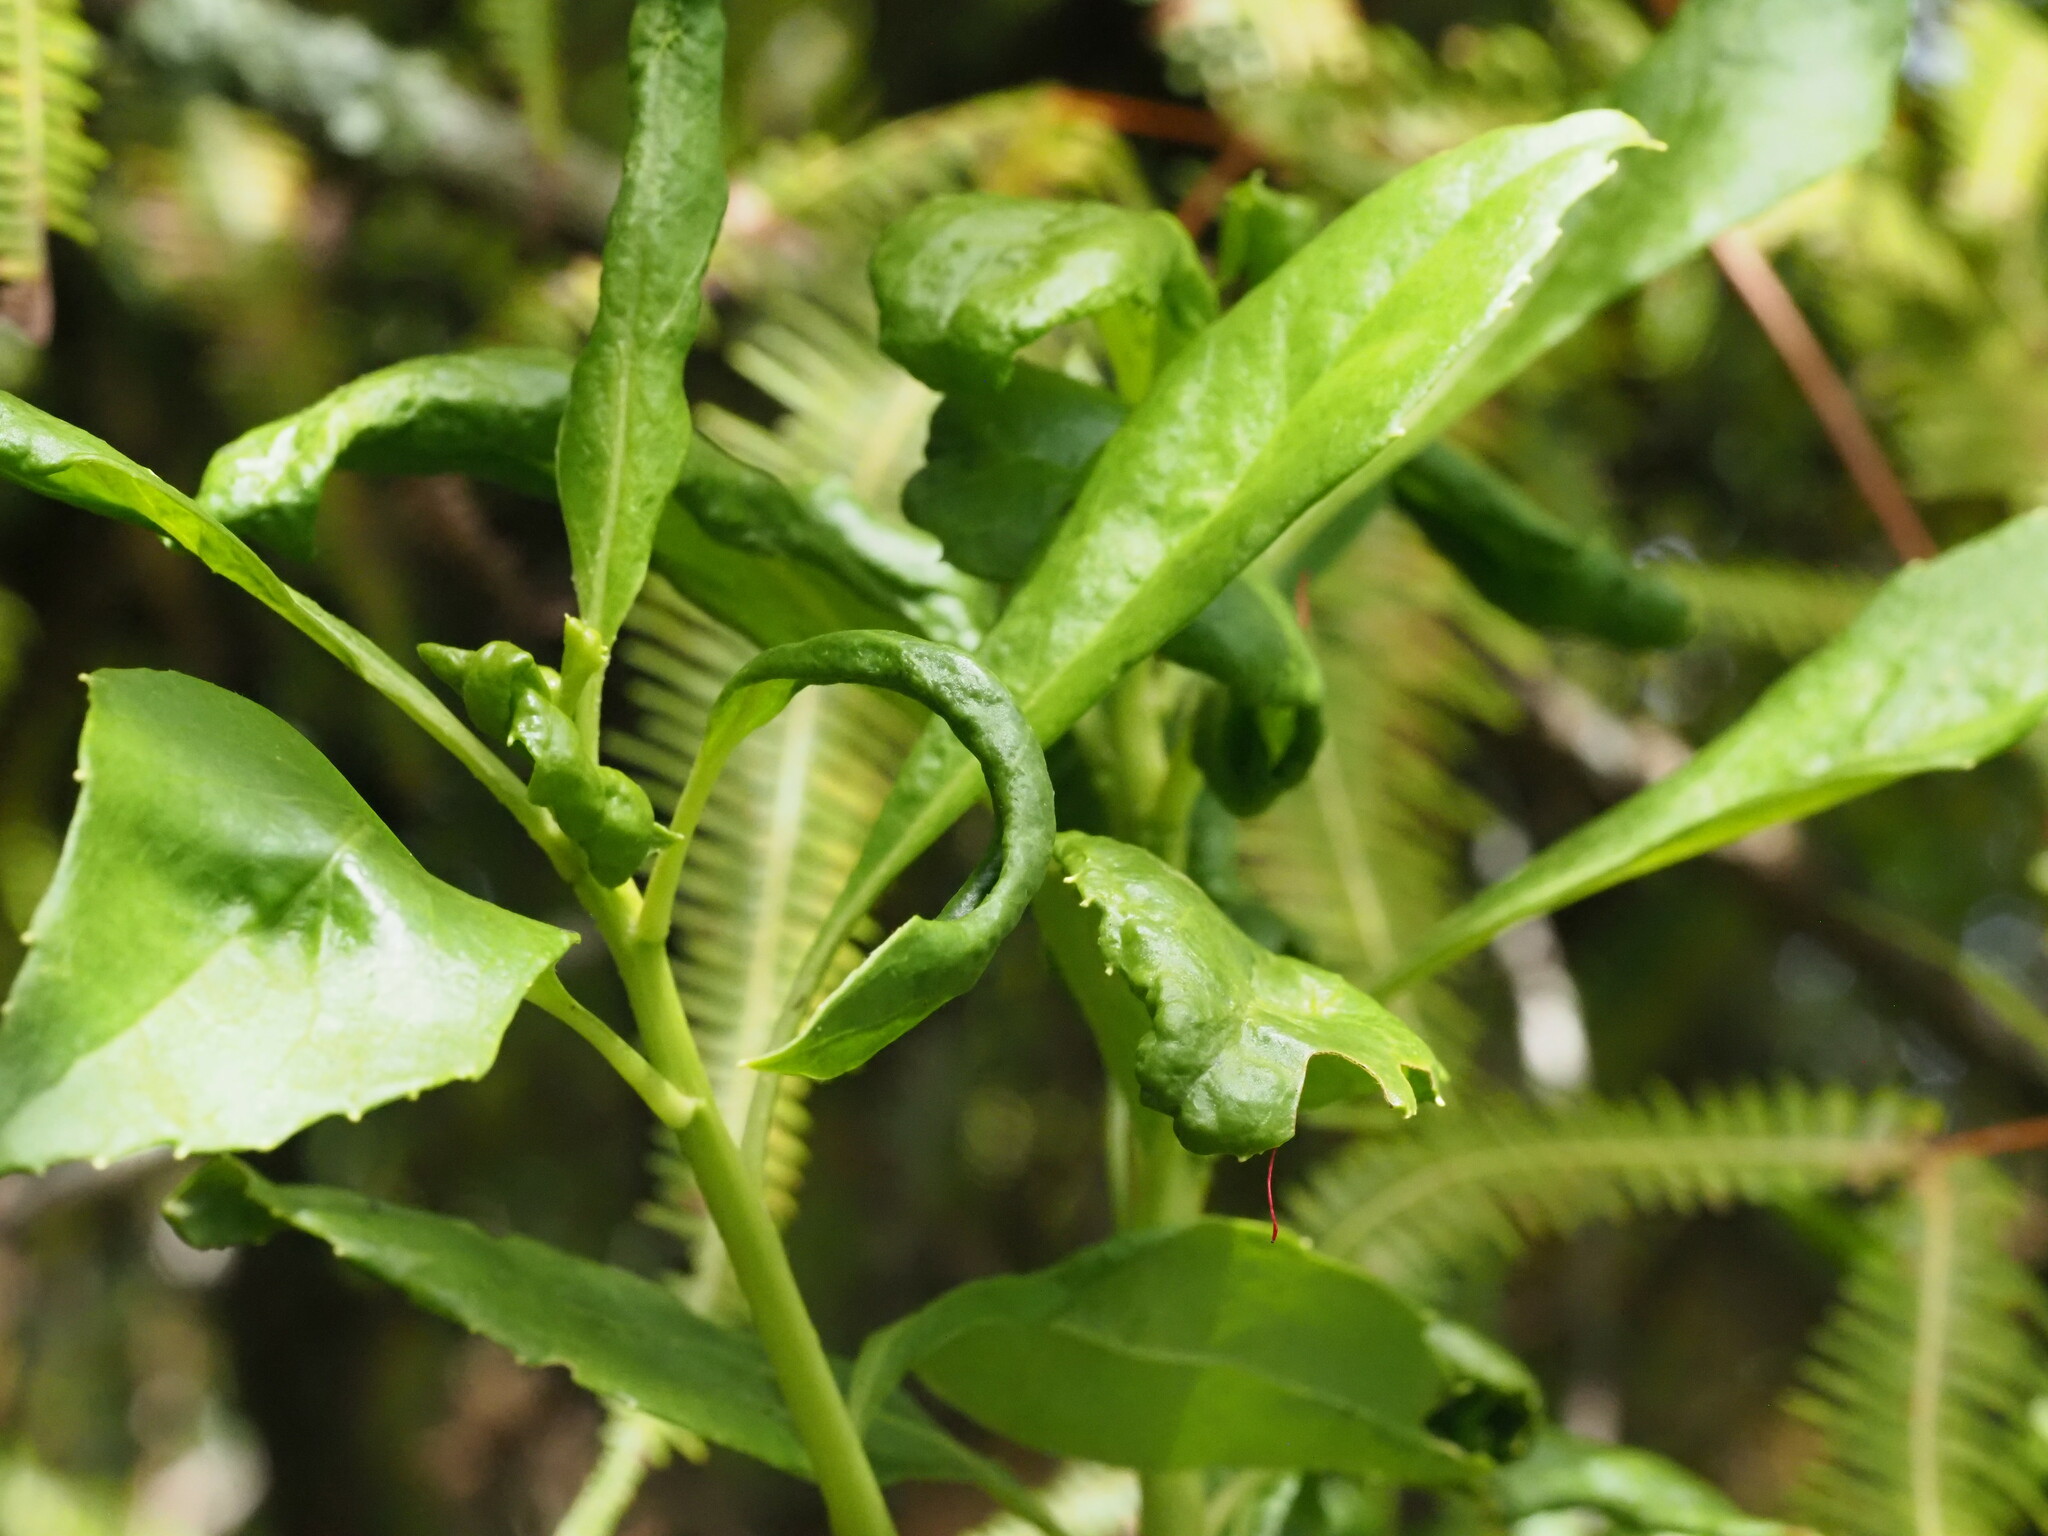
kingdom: Plantae
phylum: Tracheophyta
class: Magnoliopsida
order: Lamiales
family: Scrophulariaceae
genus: Myoporum
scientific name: Myoporum sandwicense
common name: Bastard-sandalwood
